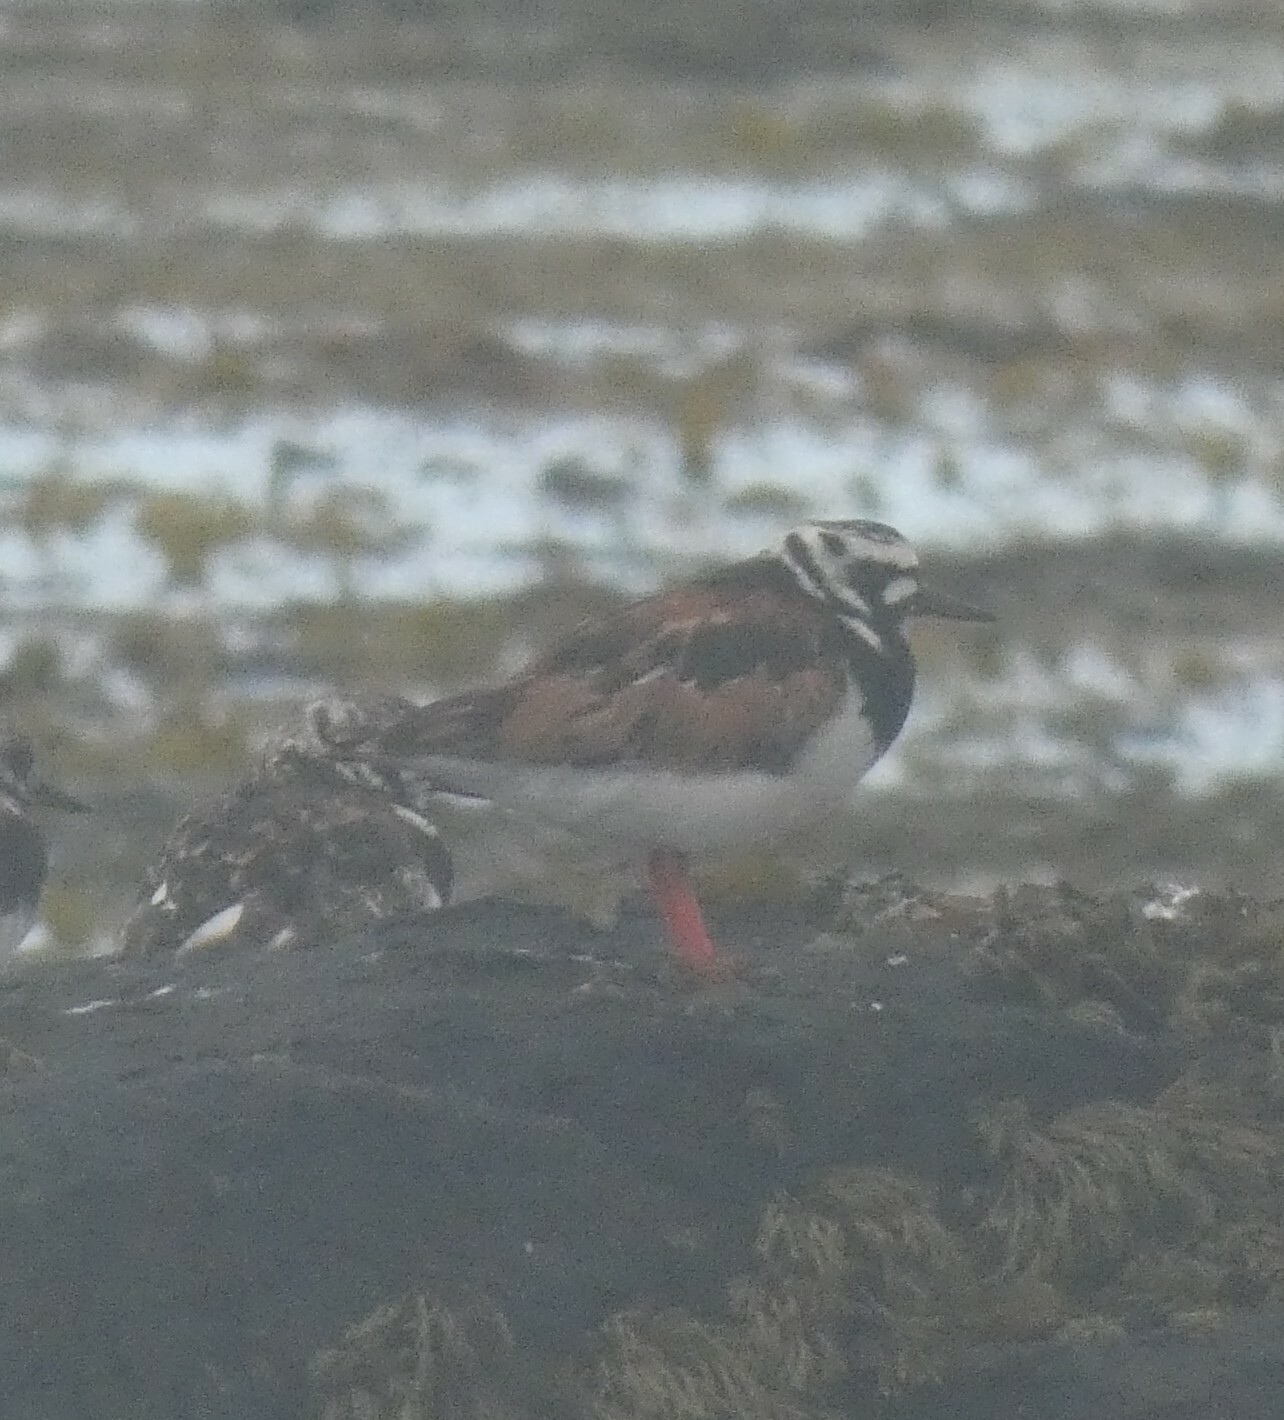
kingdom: Animalia
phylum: Chordata
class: Aves
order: Charadriiformes
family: Scolopacidae
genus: Arenaria
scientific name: Arenaria interpres
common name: Ruddy turnstone
